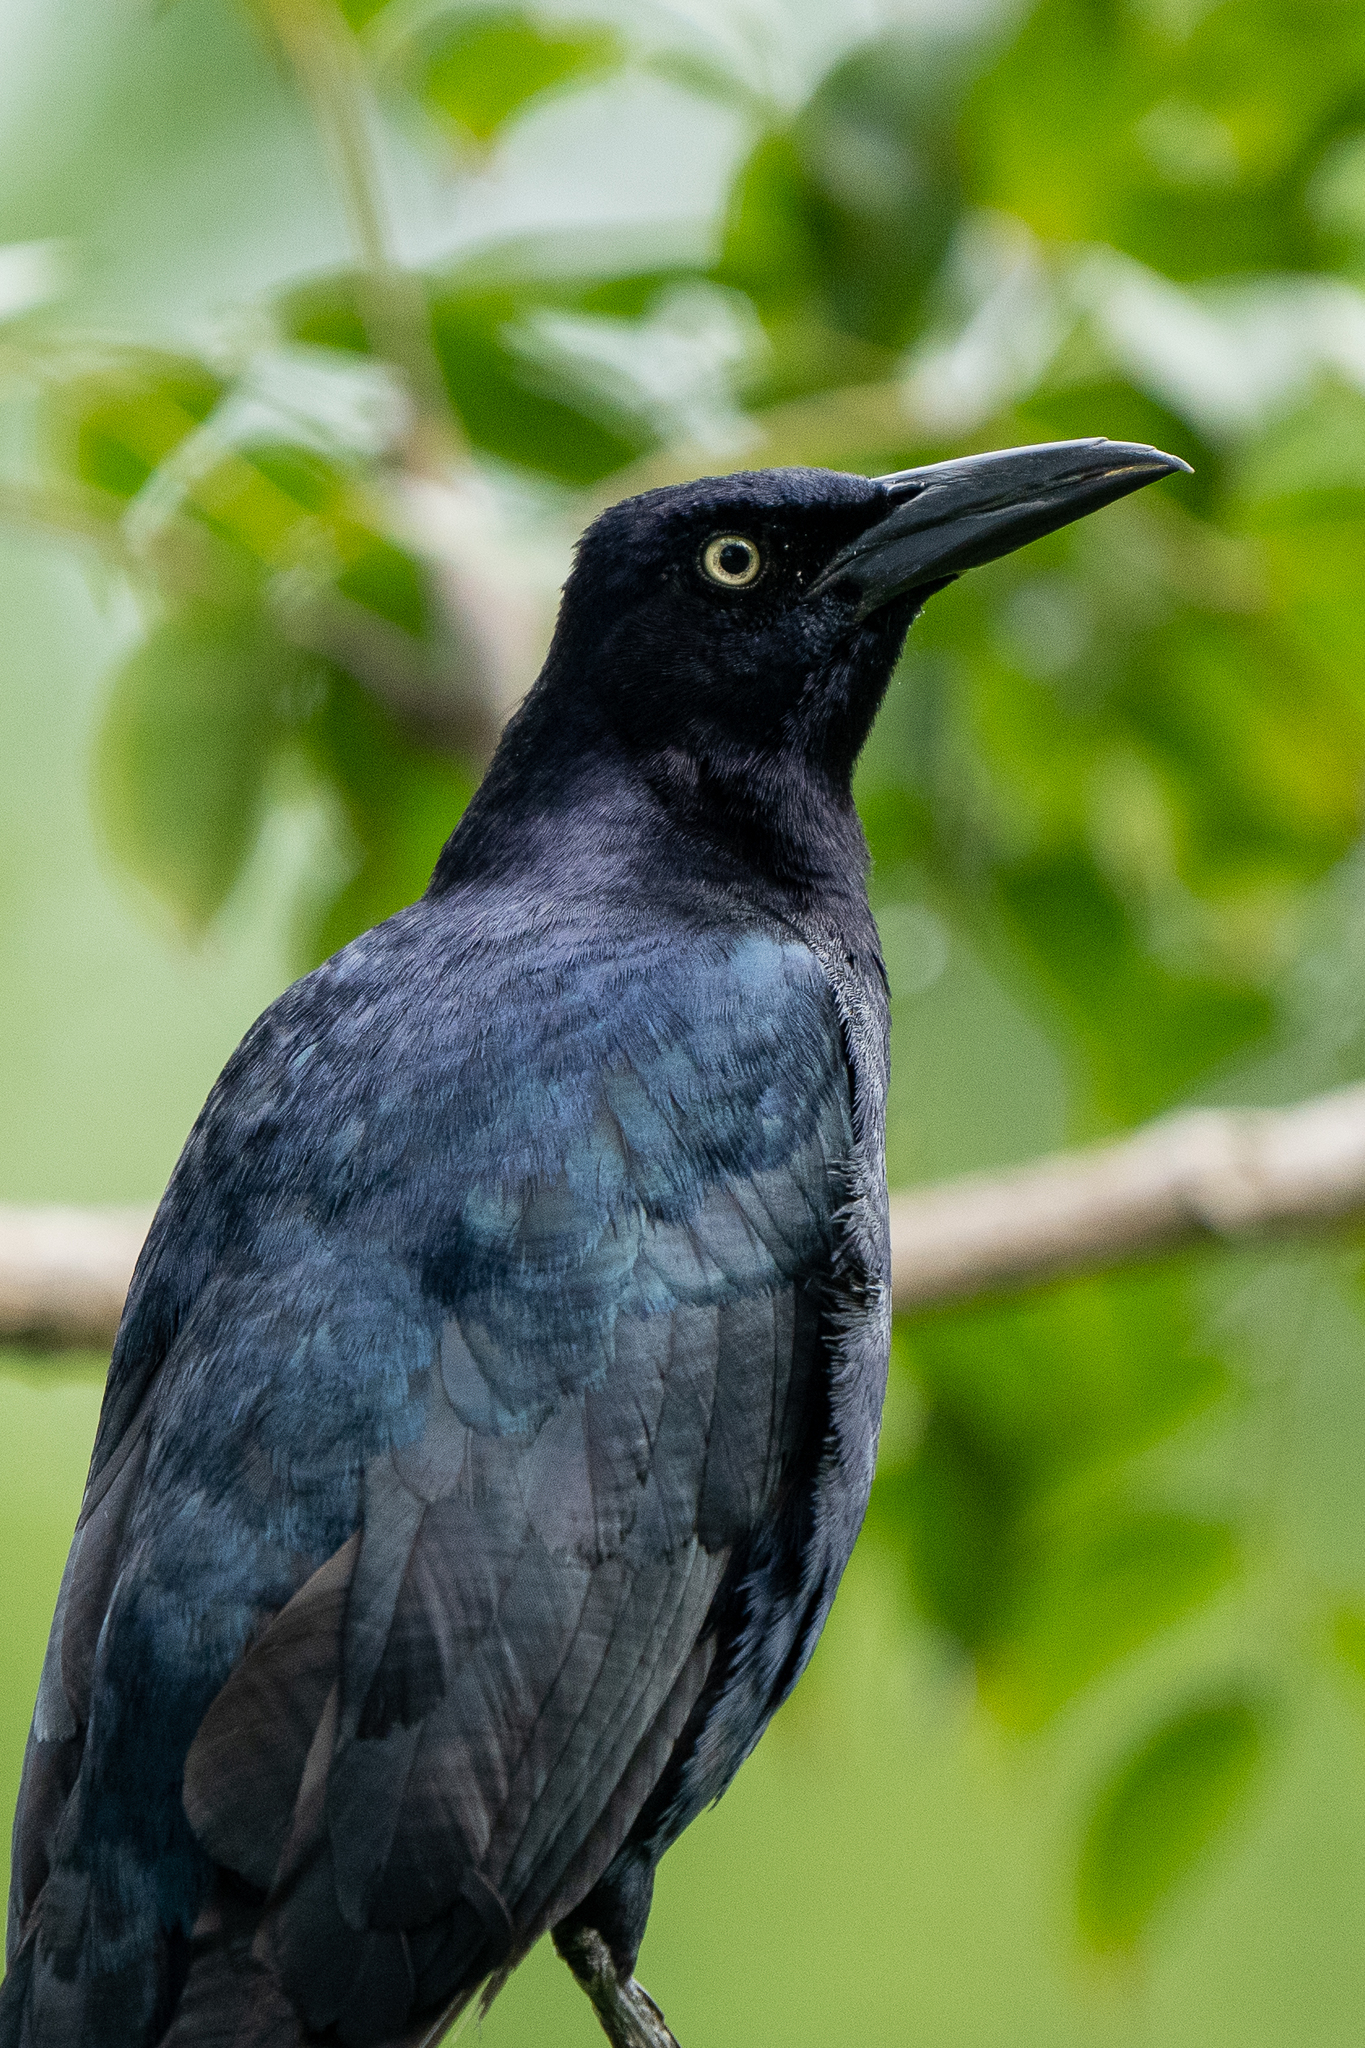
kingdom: Animalia
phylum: Chordata
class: Aves
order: Passeriformes
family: Icteridae
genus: Quiscalus
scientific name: Quiscalus mexicanus
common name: Great-tailed grackle
